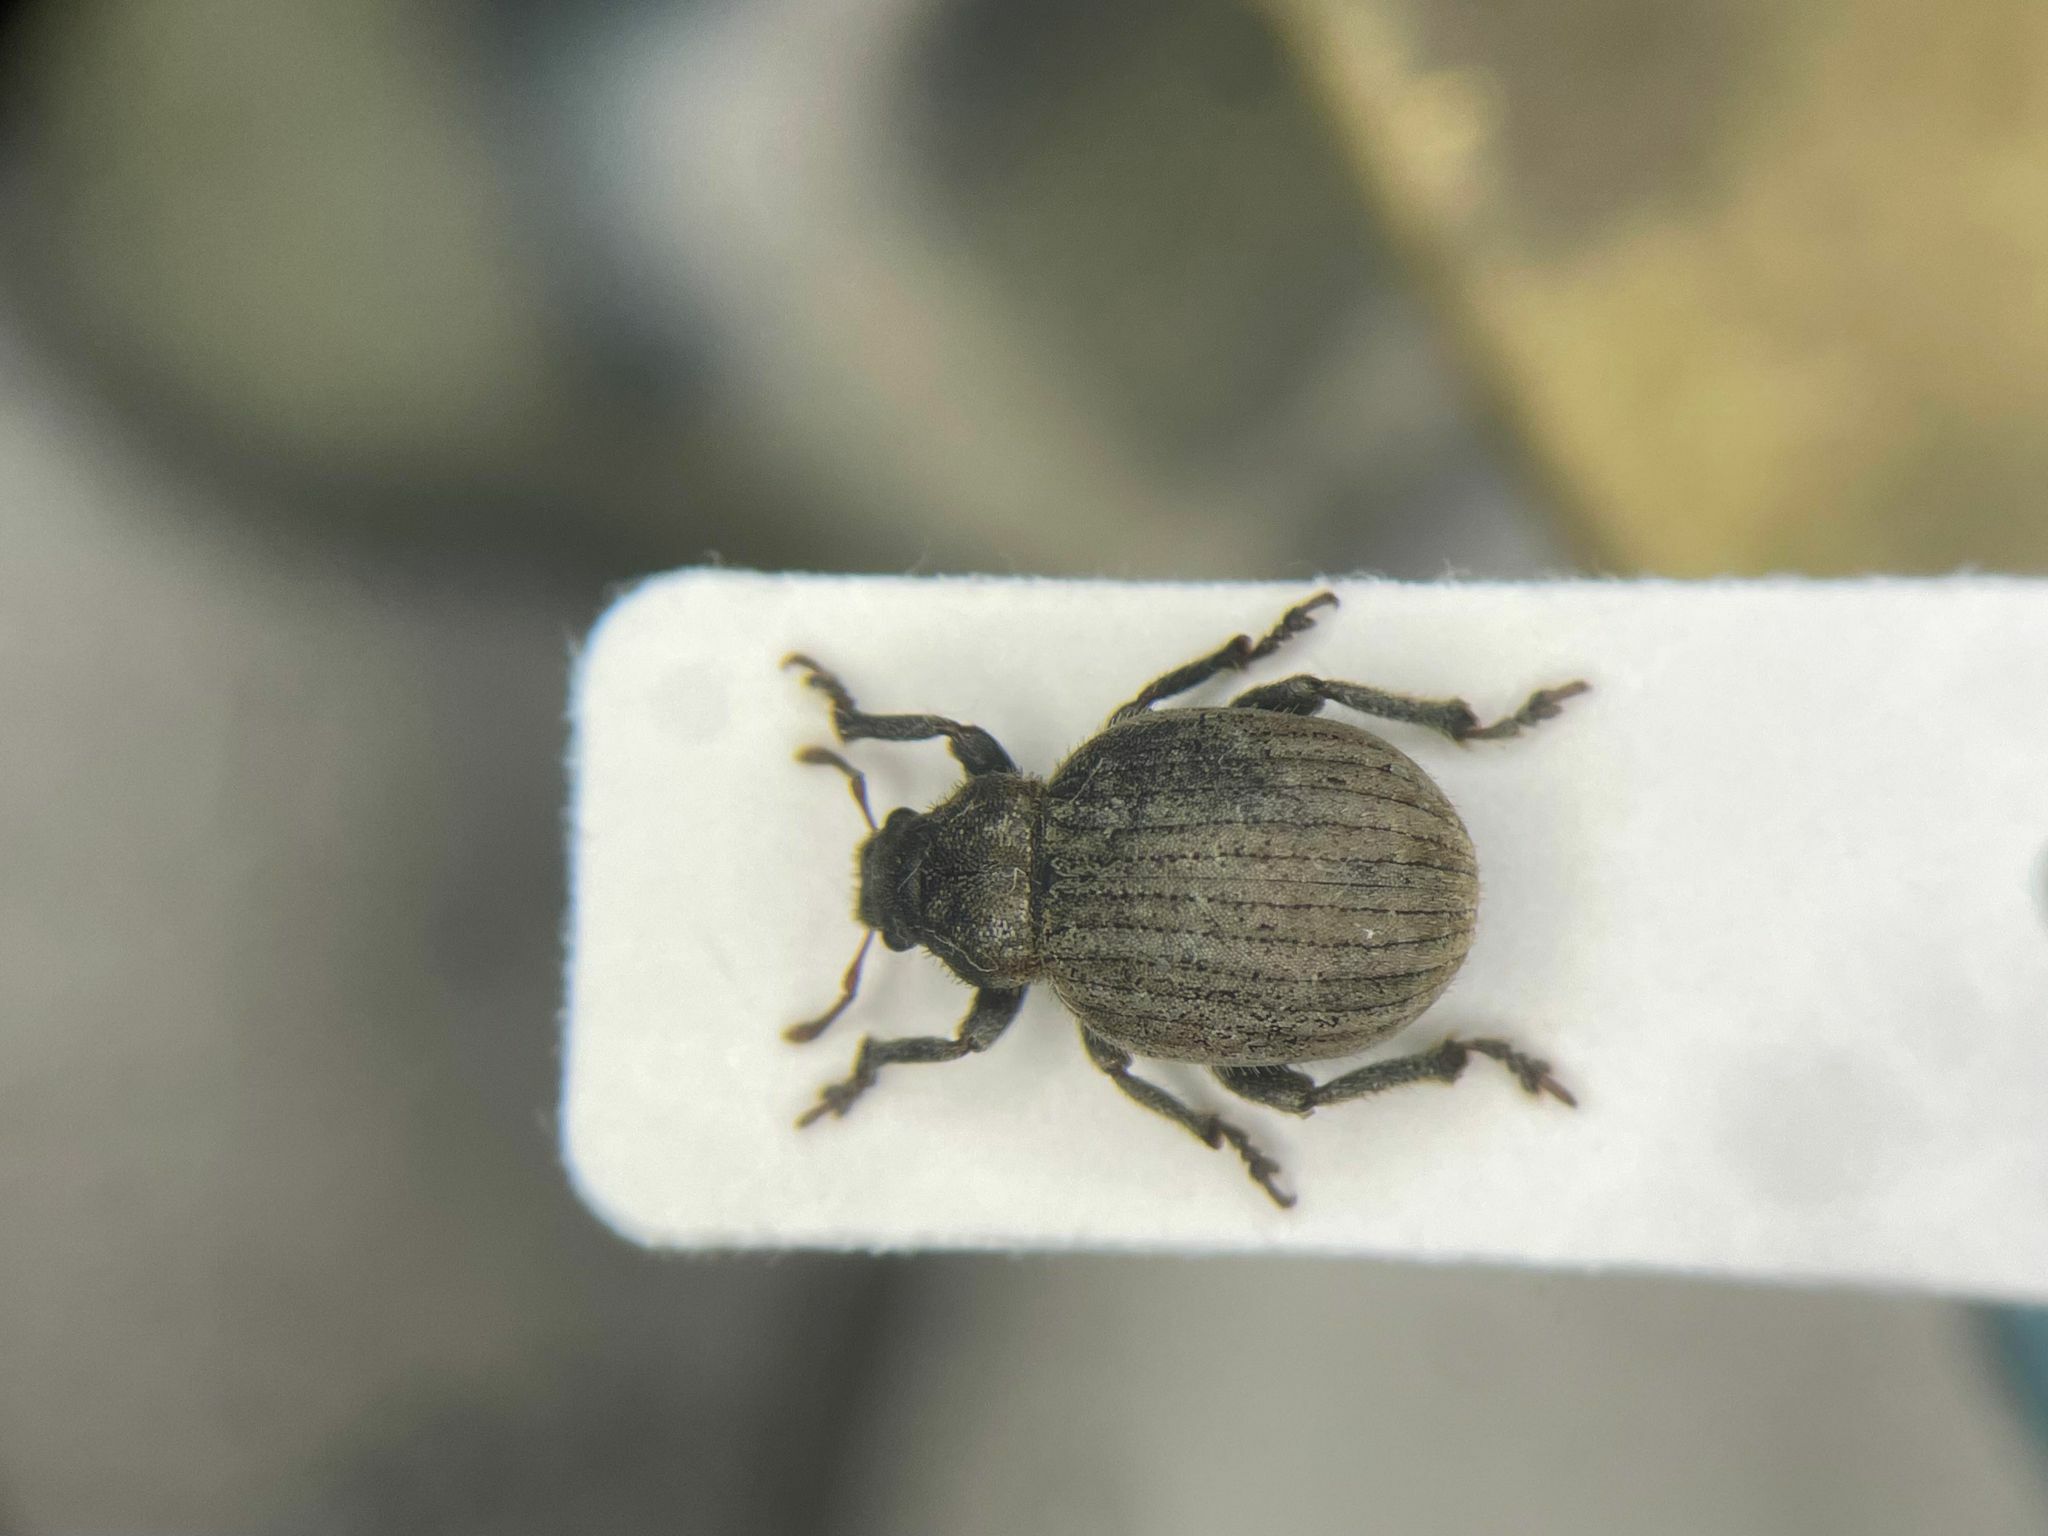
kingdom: Animalia
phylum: Arthropoda
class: Insecta
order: Coleoptera
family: Curculionidae
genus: Philopedon
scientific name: Philopedon plagiatum
